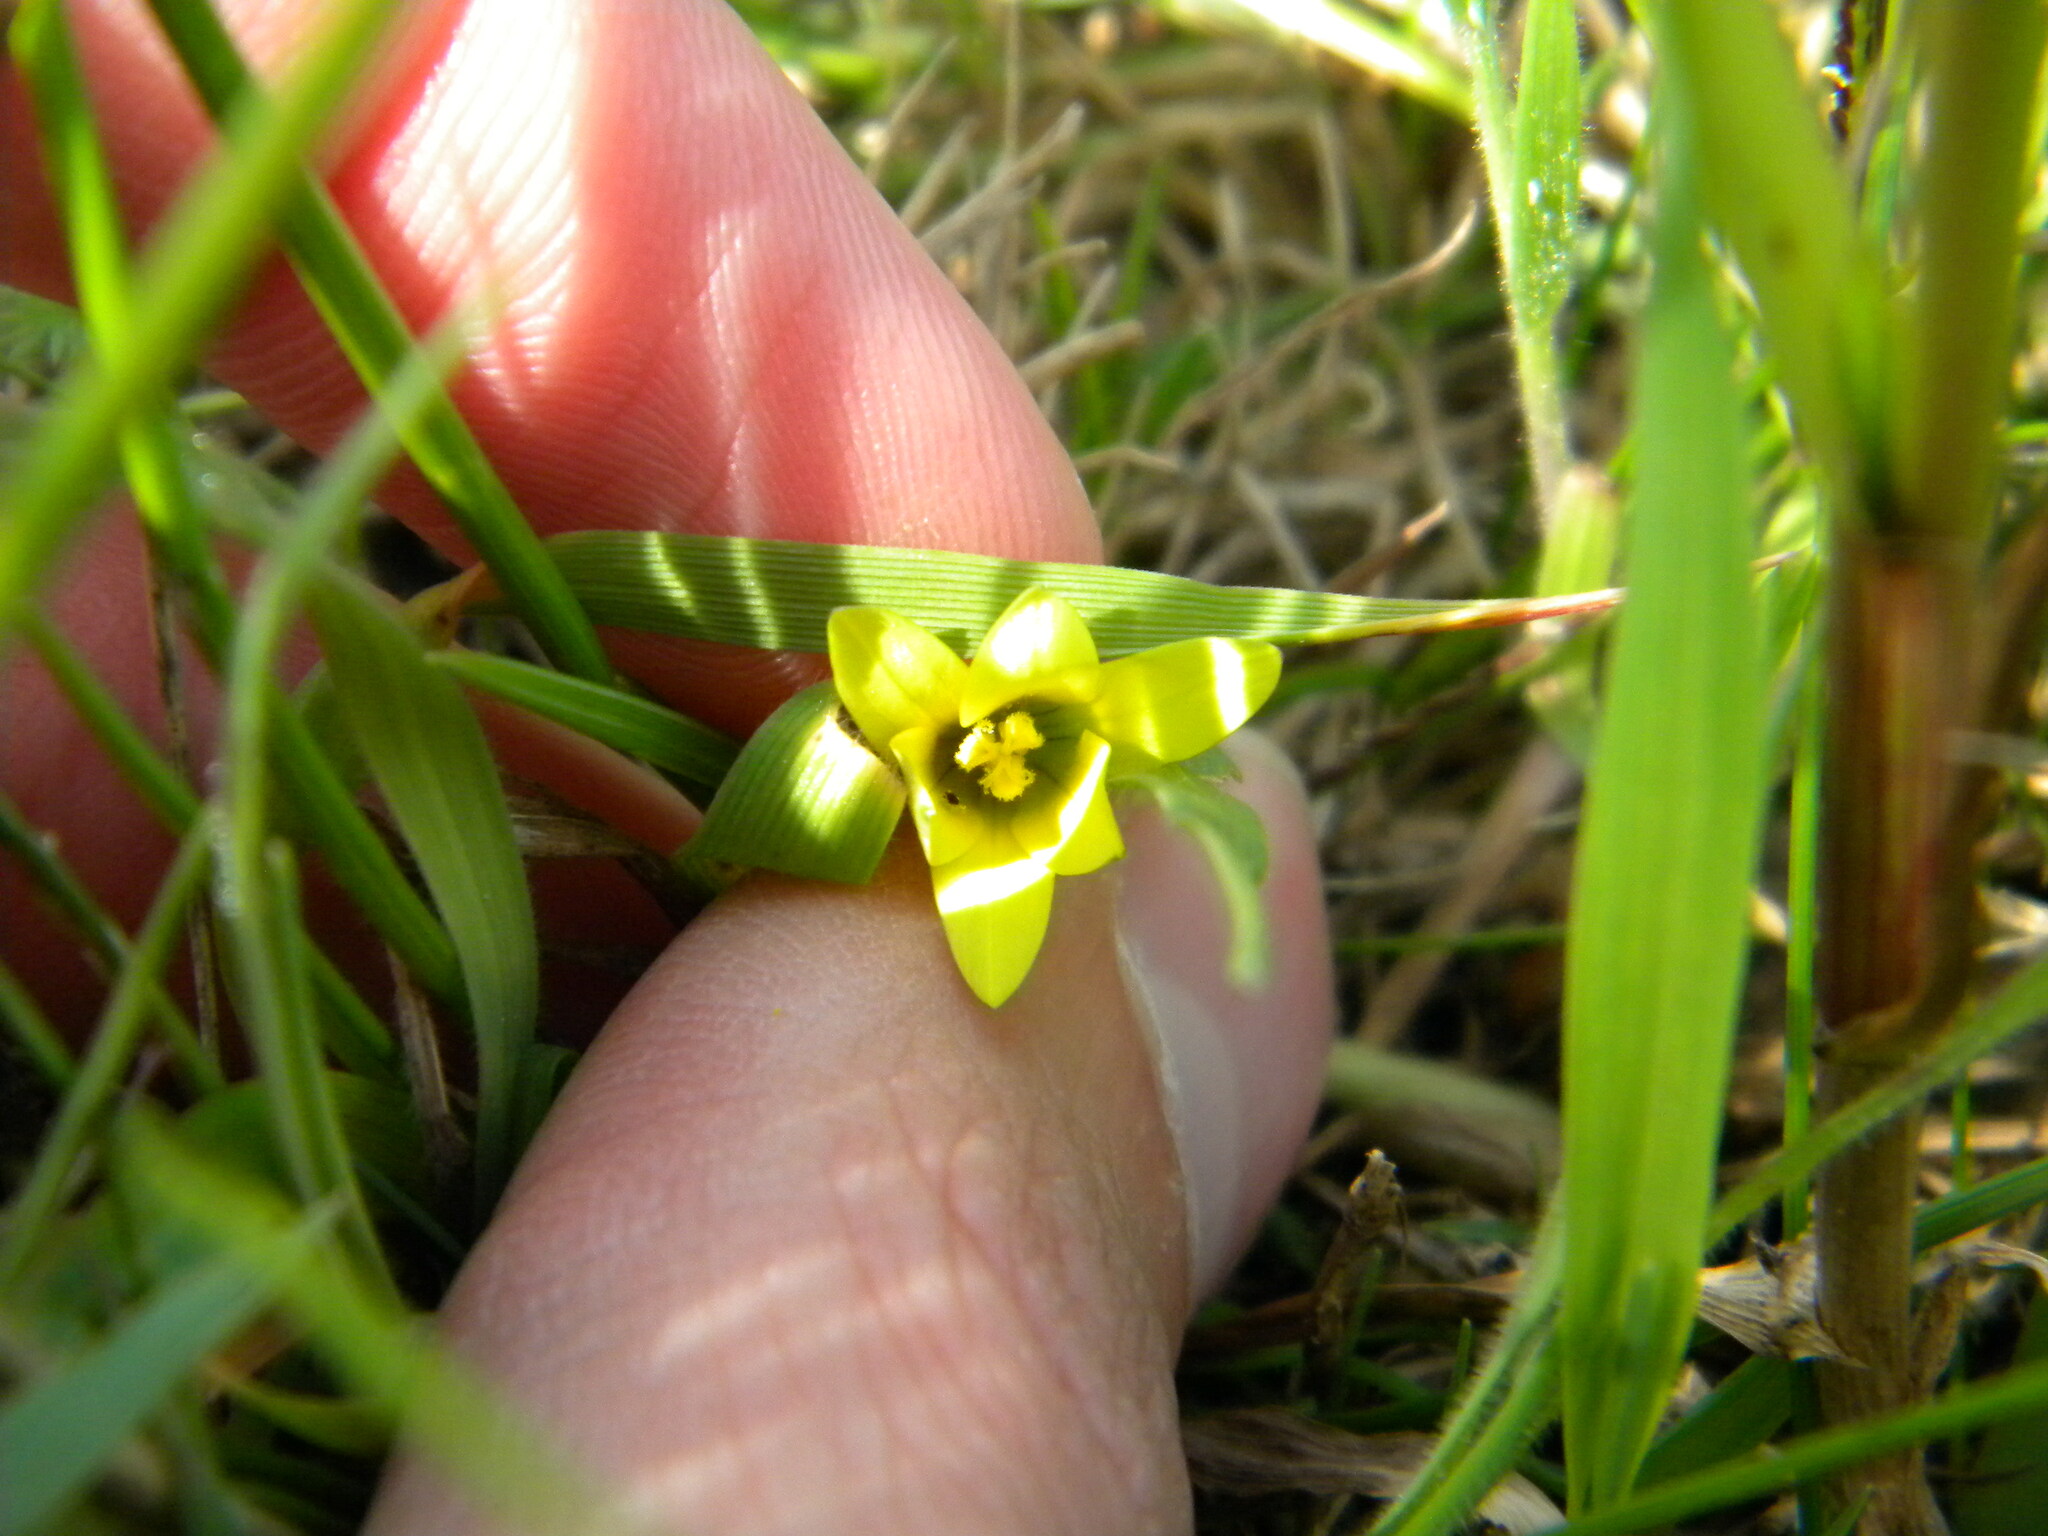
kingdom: Plantae
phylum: Tracheophyta
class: Liliopsida
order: Asparagales
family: Iridaceae
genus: Romulea
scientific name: Romulea flava
